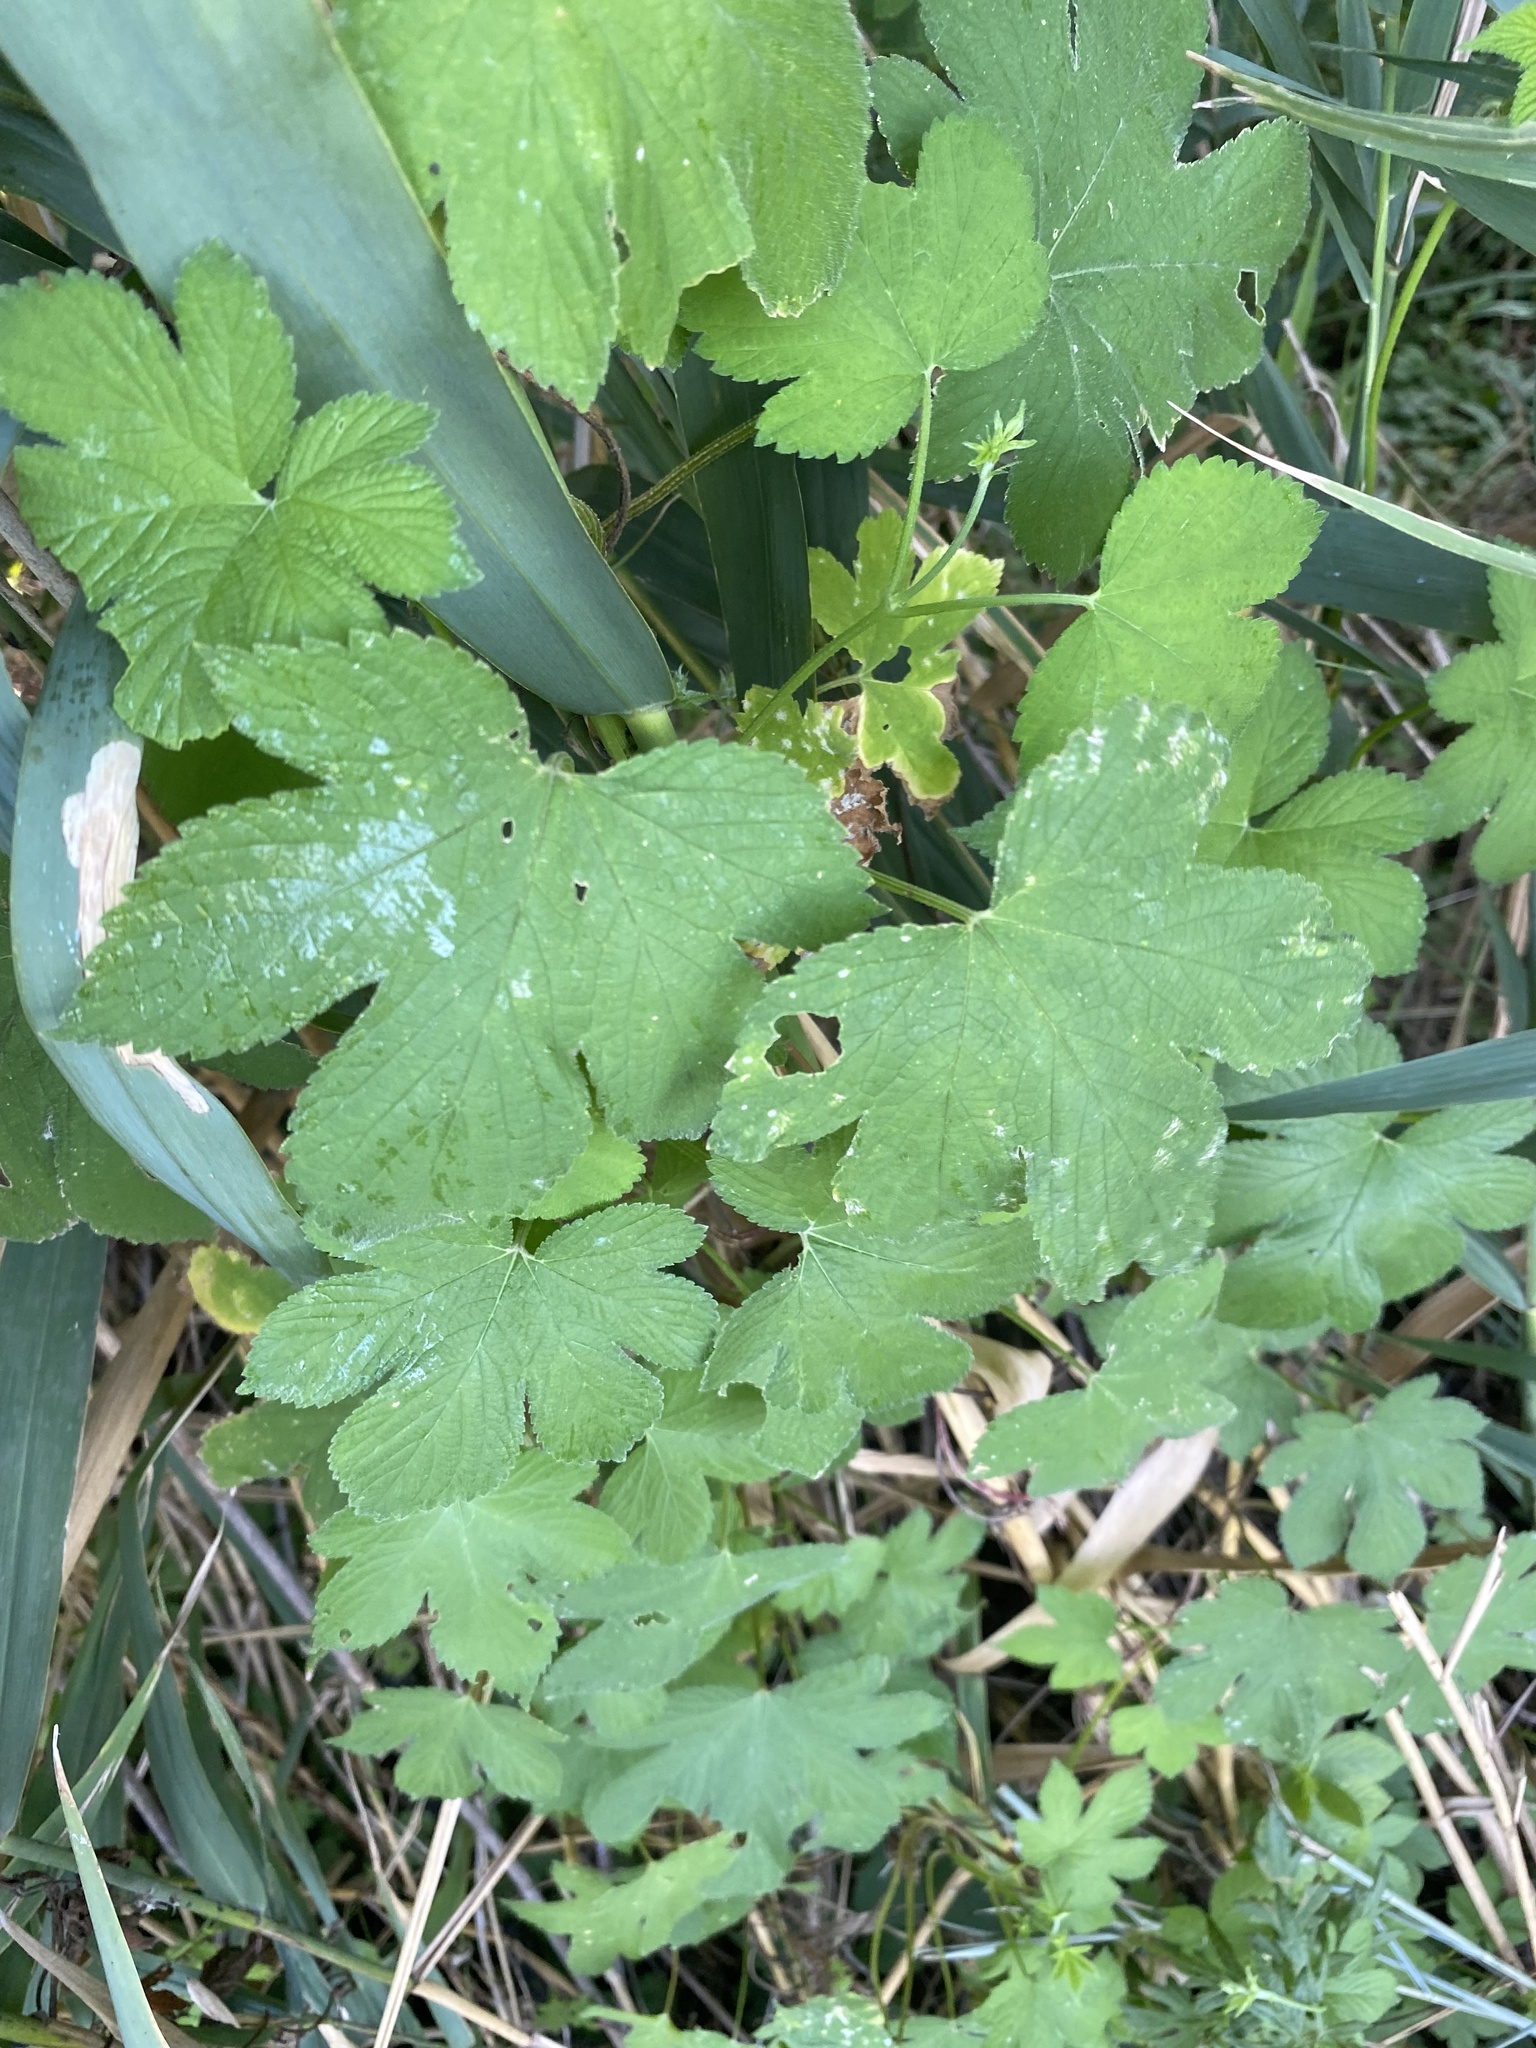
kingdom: Plantae
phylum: Tracheophyta
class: Magnoliopsida
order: Rosales
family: Cannabaceae
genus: Humulus
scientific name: Humulus scandens
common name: Japanese hop
